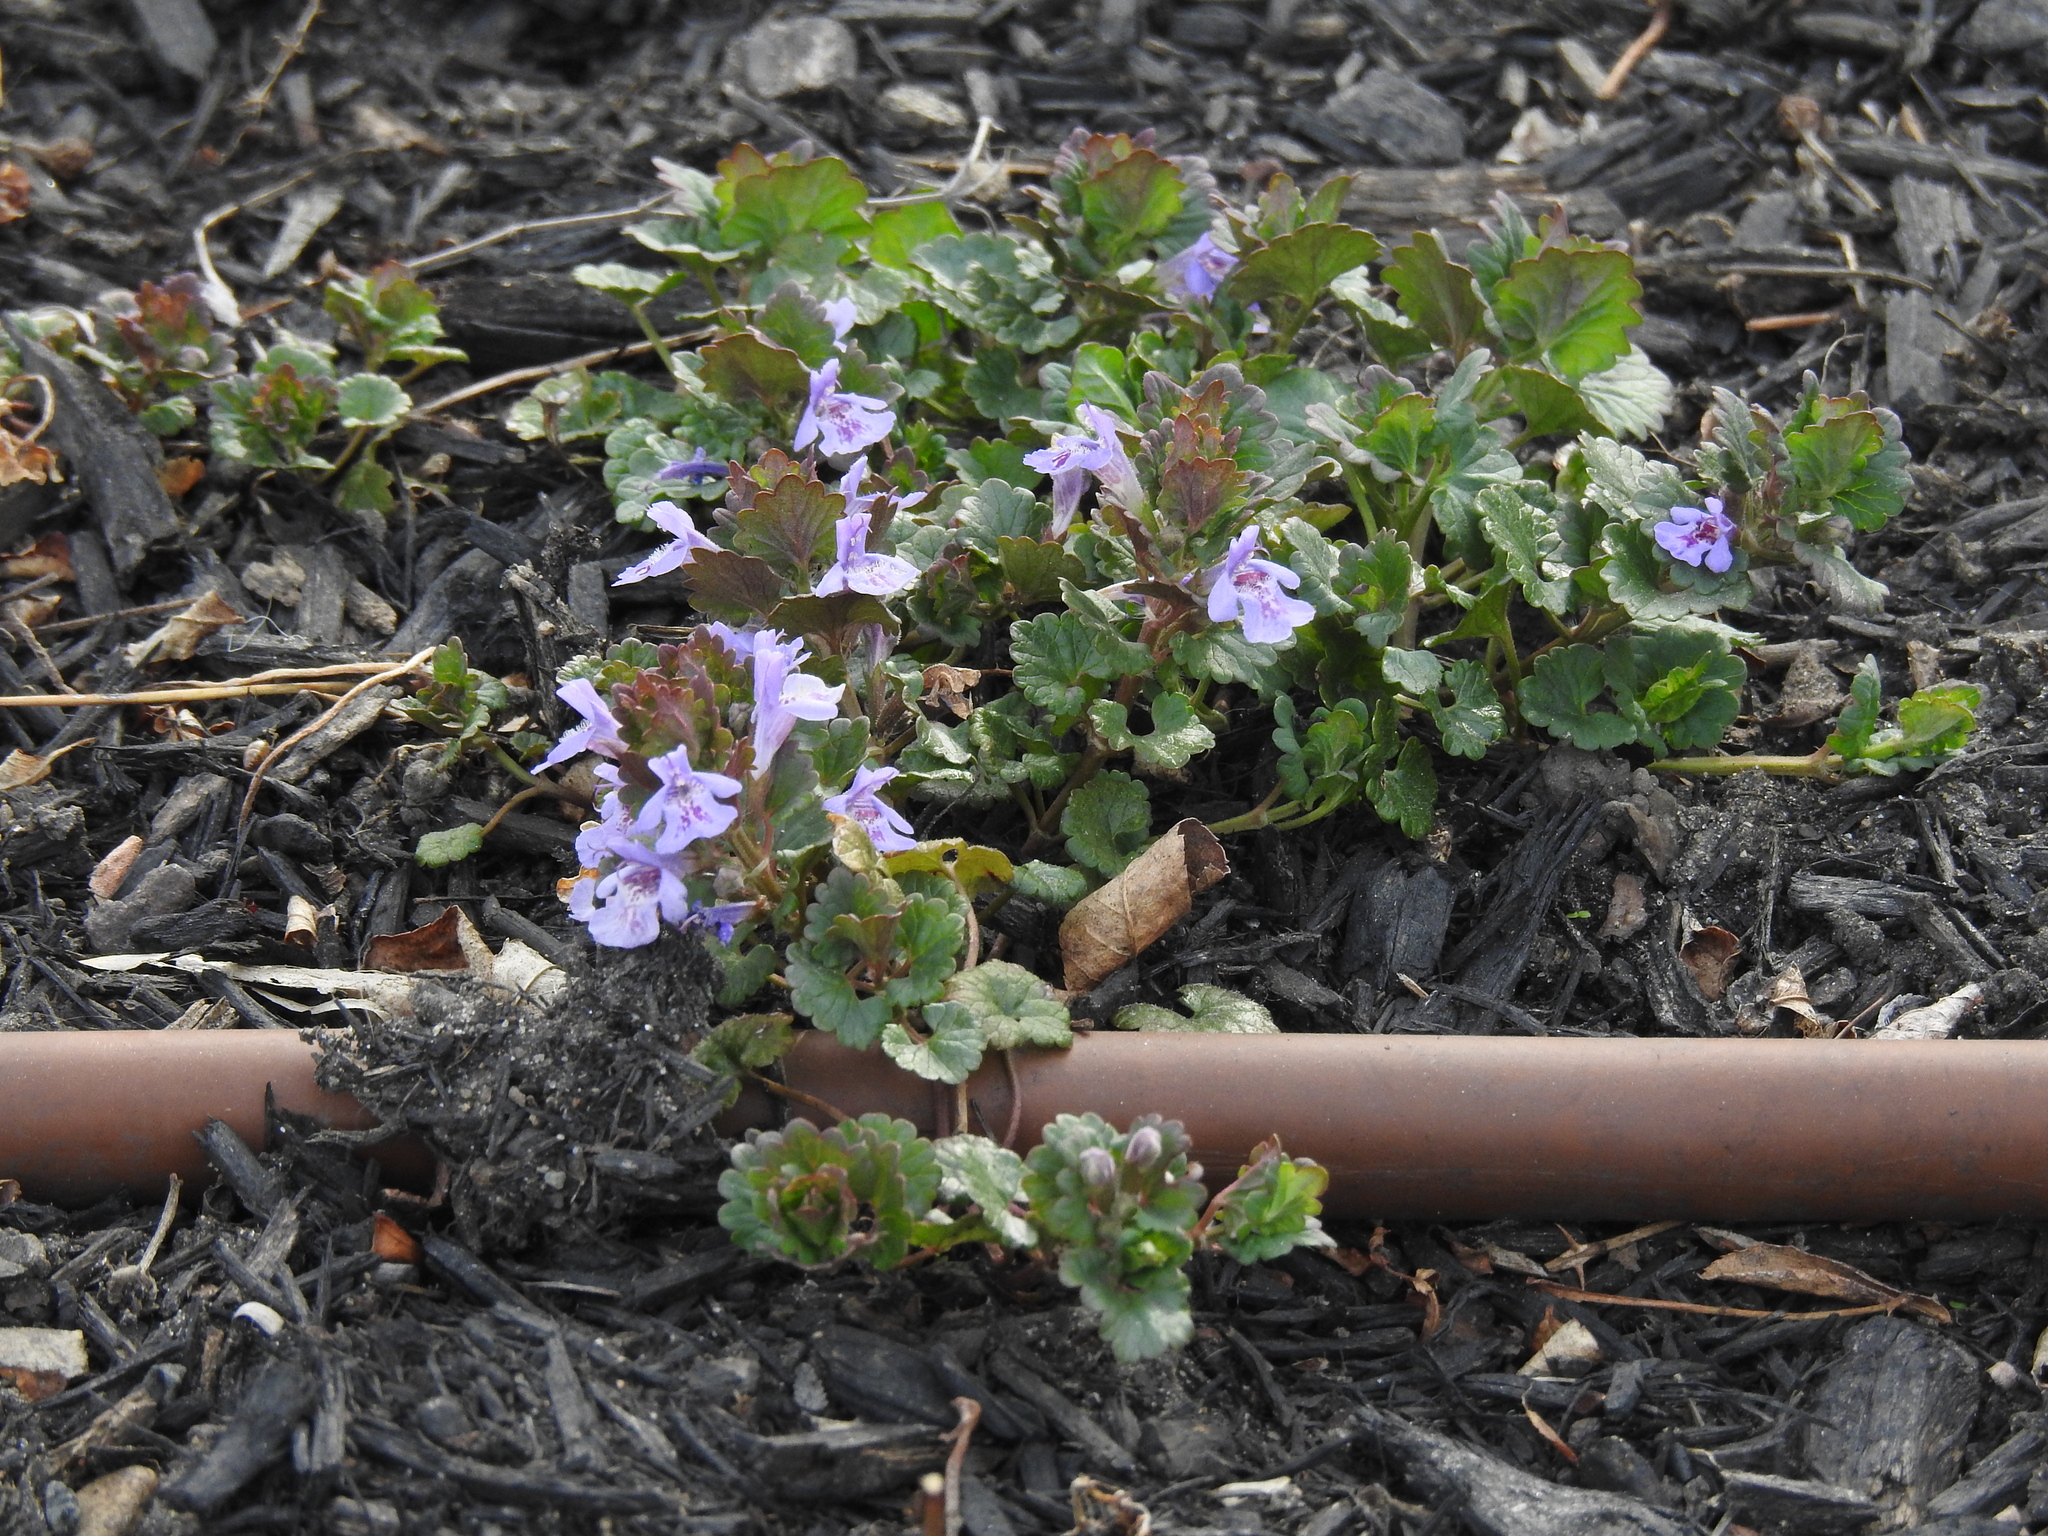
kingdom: Plantae
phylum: Tracheophyta
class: Magnoliopsida
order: Lamiales
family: Lamiaceae
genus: Glechoma
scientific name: Glechoma hederacea
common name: Ground ivy
